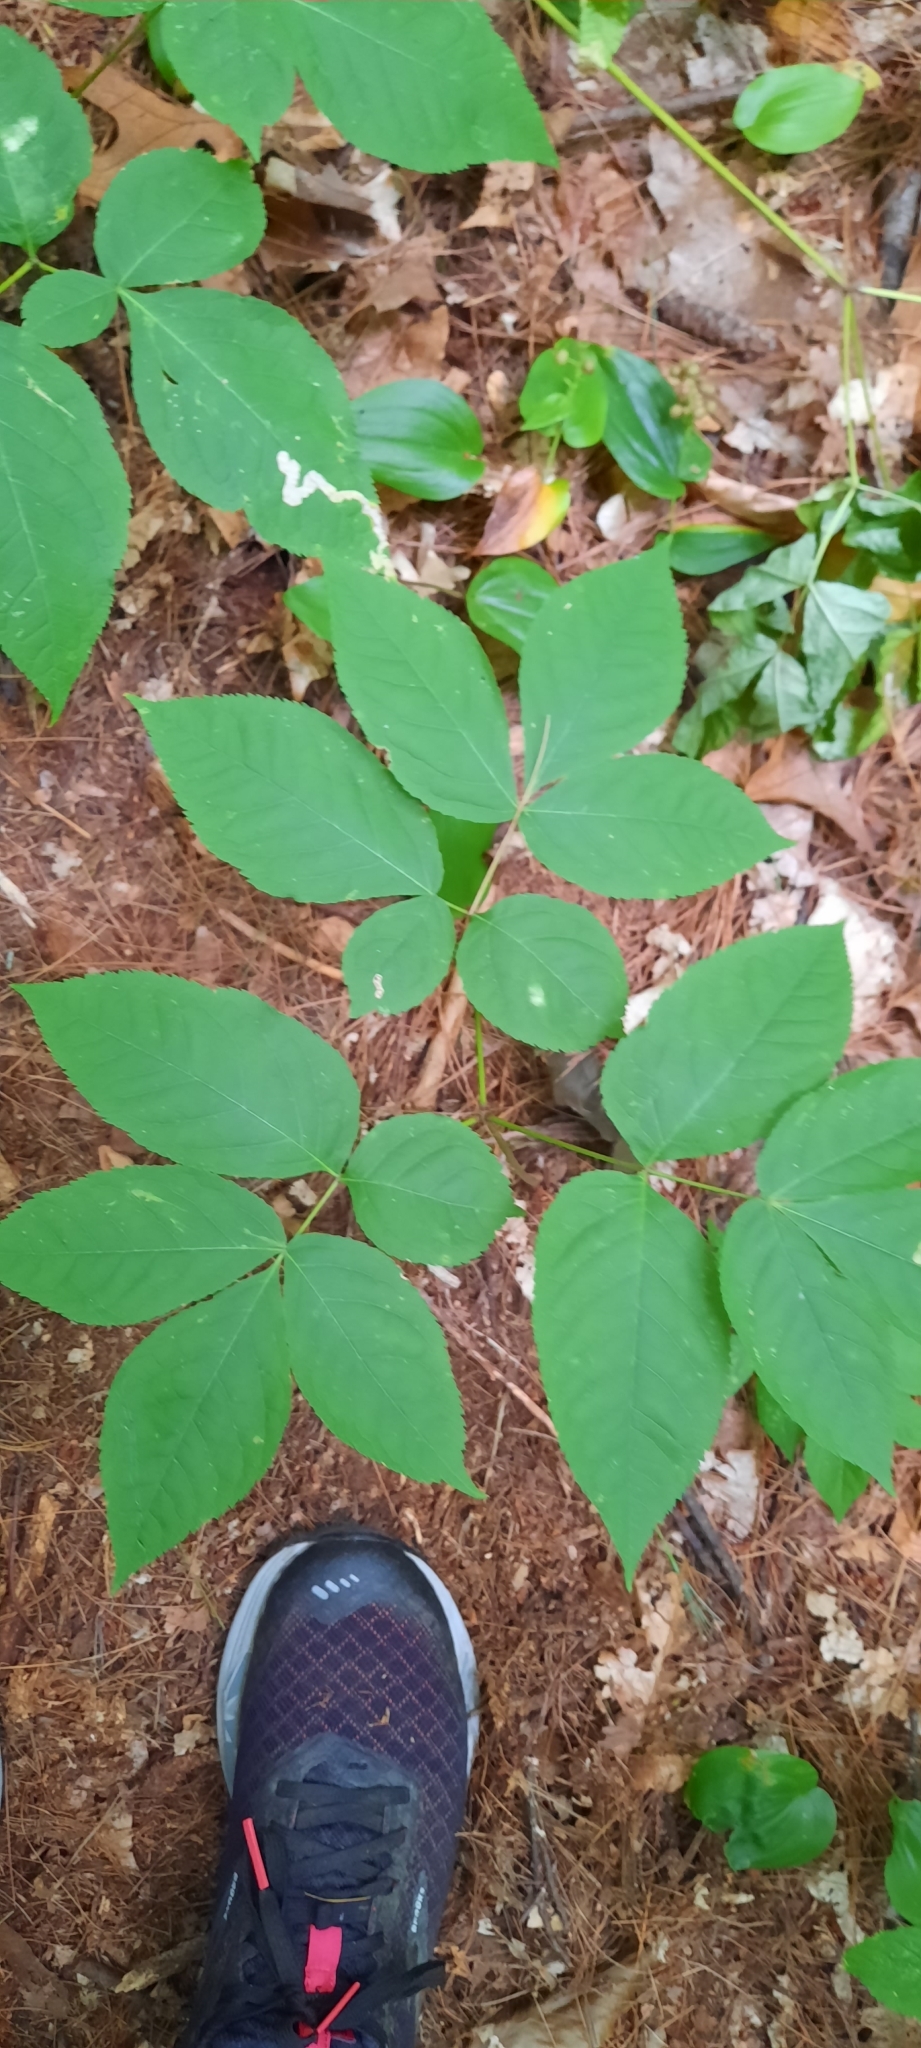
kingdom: Plantae
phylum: Tracheophyta
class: Magnoliopsida
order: Apiales
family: Araliaceae
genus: Aralia
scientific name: Aralia nudicaulis
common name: Wild sarsaparilla
